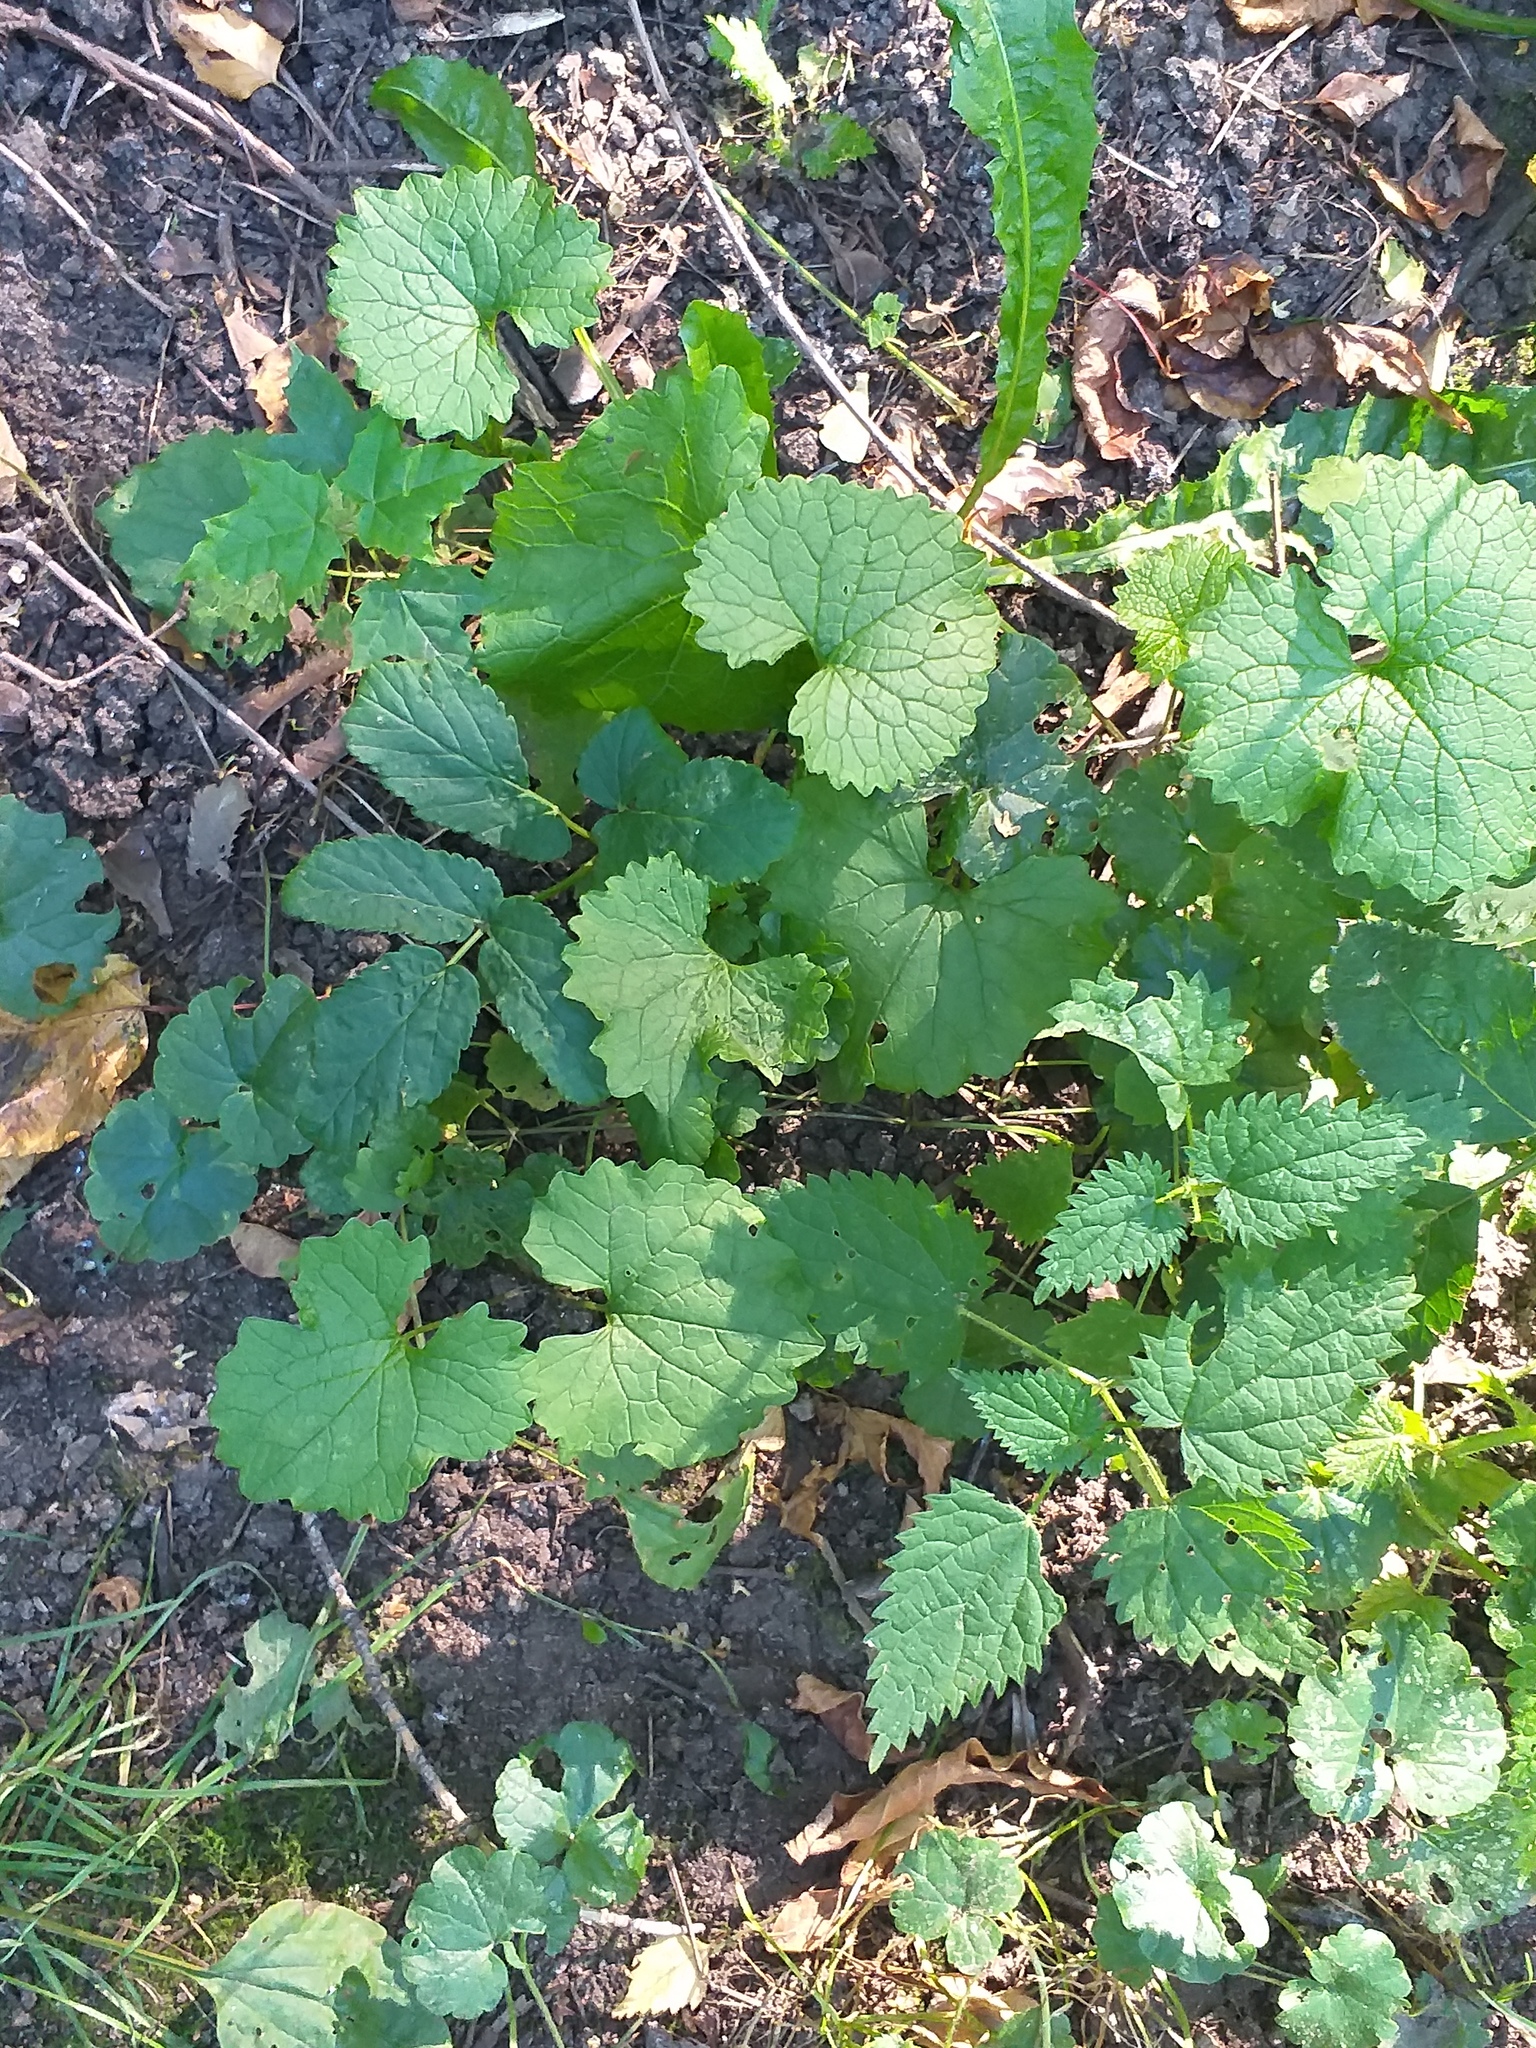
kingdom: Plantae
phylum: Tracheophyta
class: Magnoliopsida
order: Brassicales
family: Brassicaceae
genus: Alliaria
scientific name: Alliaria petiolata
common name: Garlic mustard
